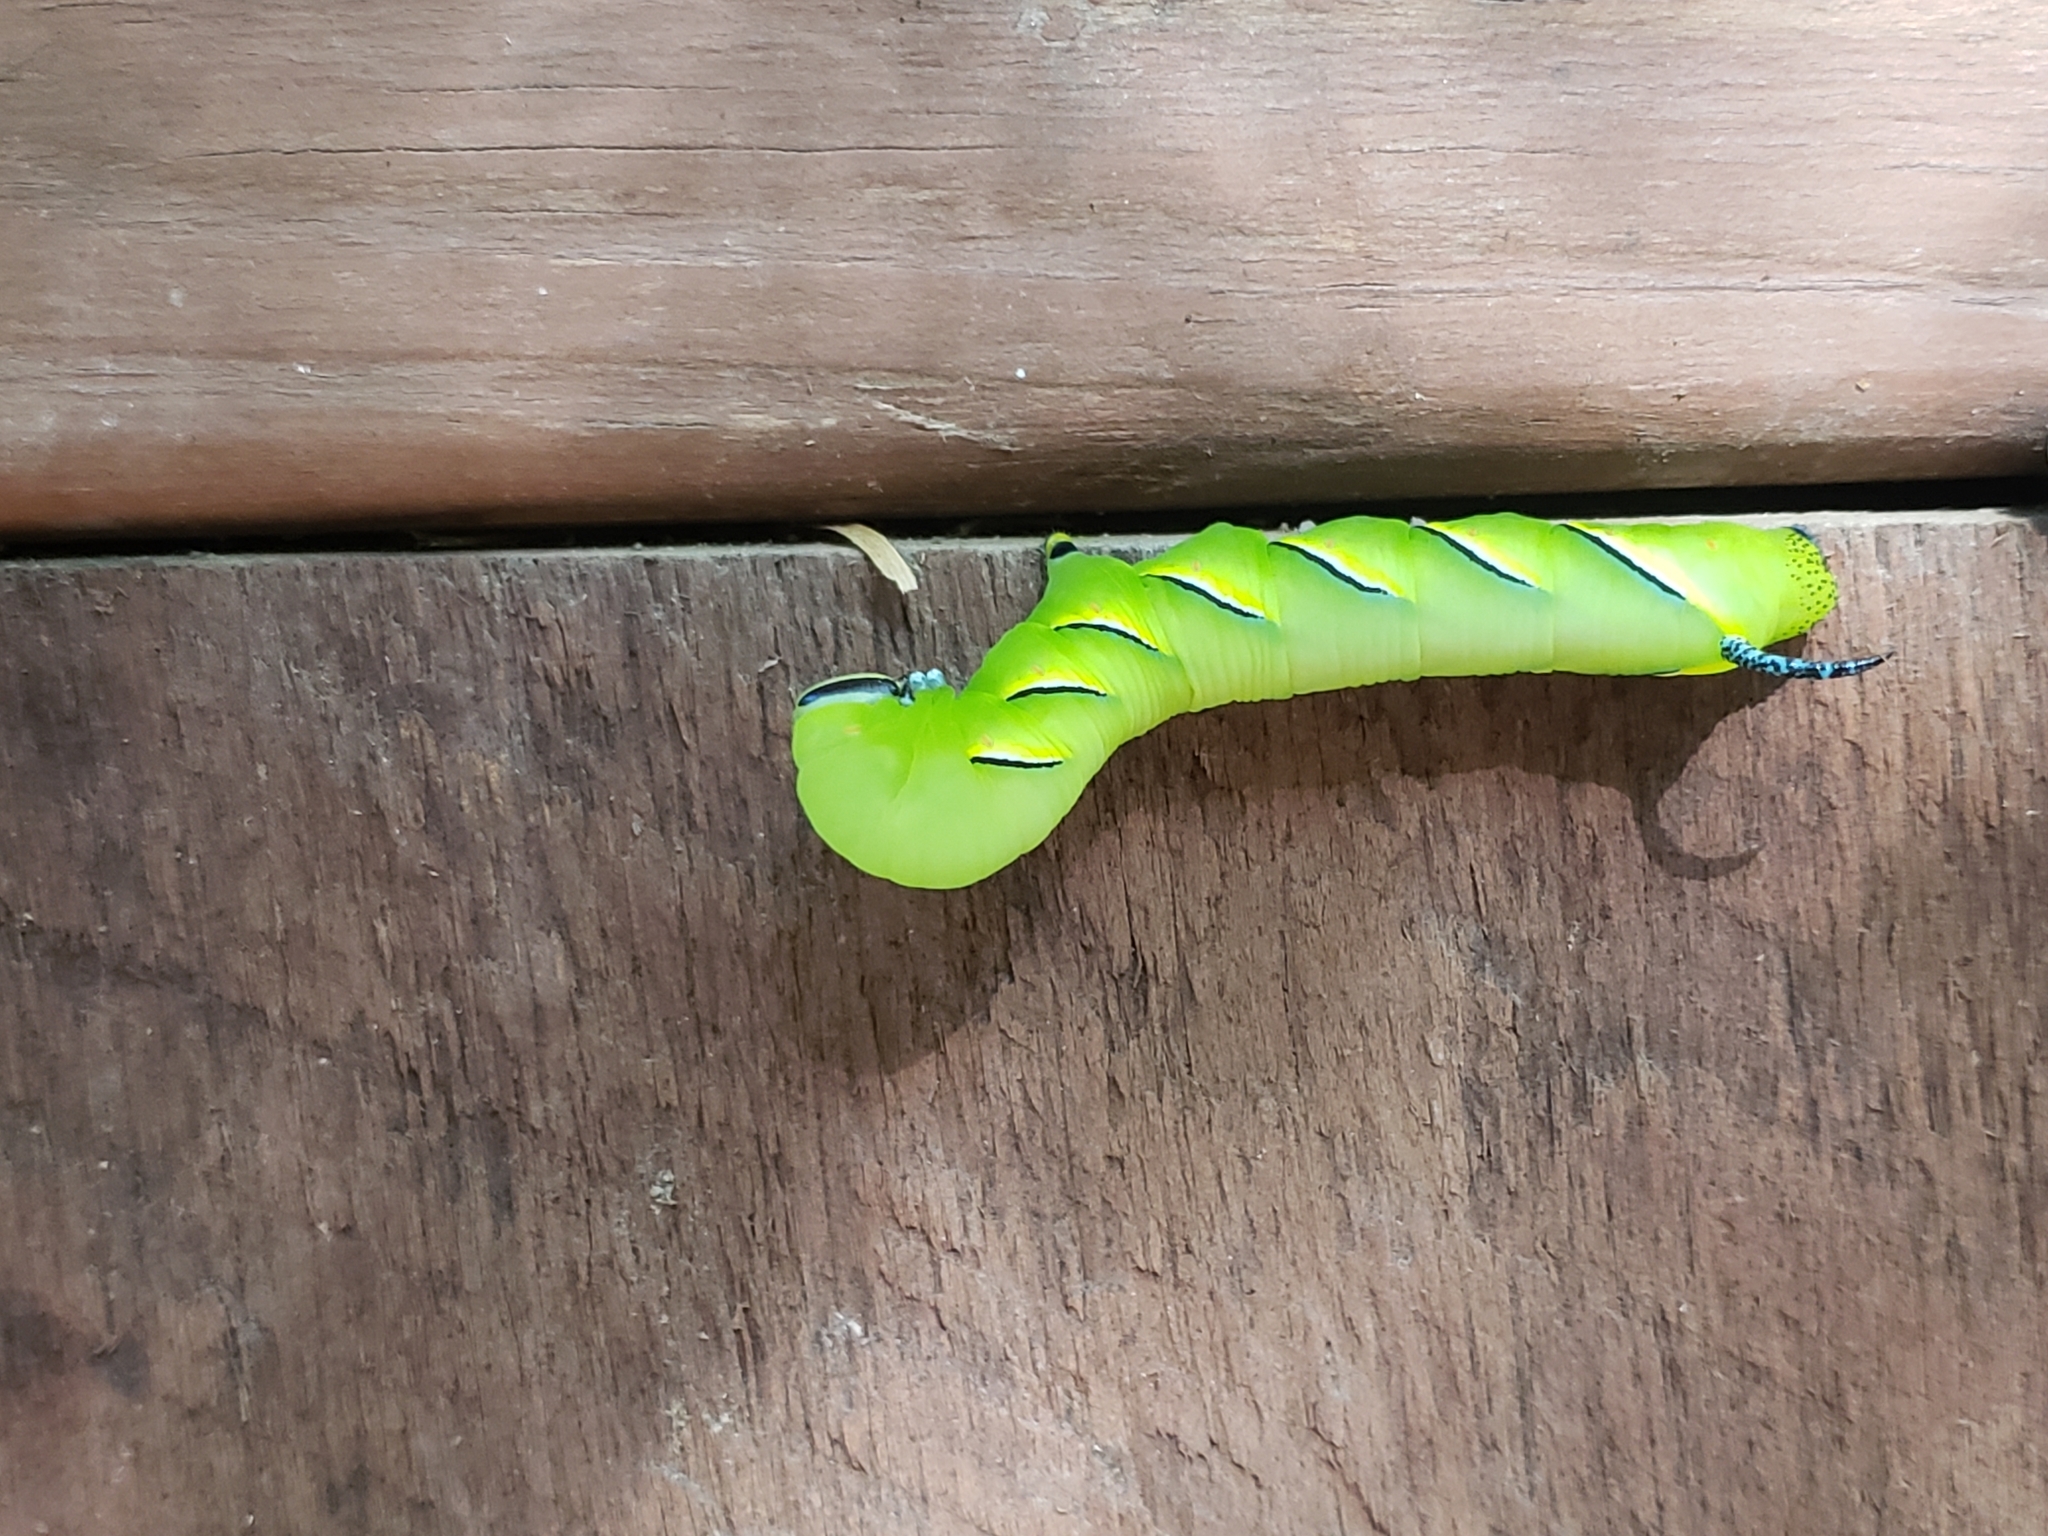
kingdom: Animalia
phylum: Arthropoda
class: Insecta
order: Lepidoptera
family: Sphingidae
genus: Sphinx
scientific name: Sphinx kalmiae
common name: Laurel sphinx
